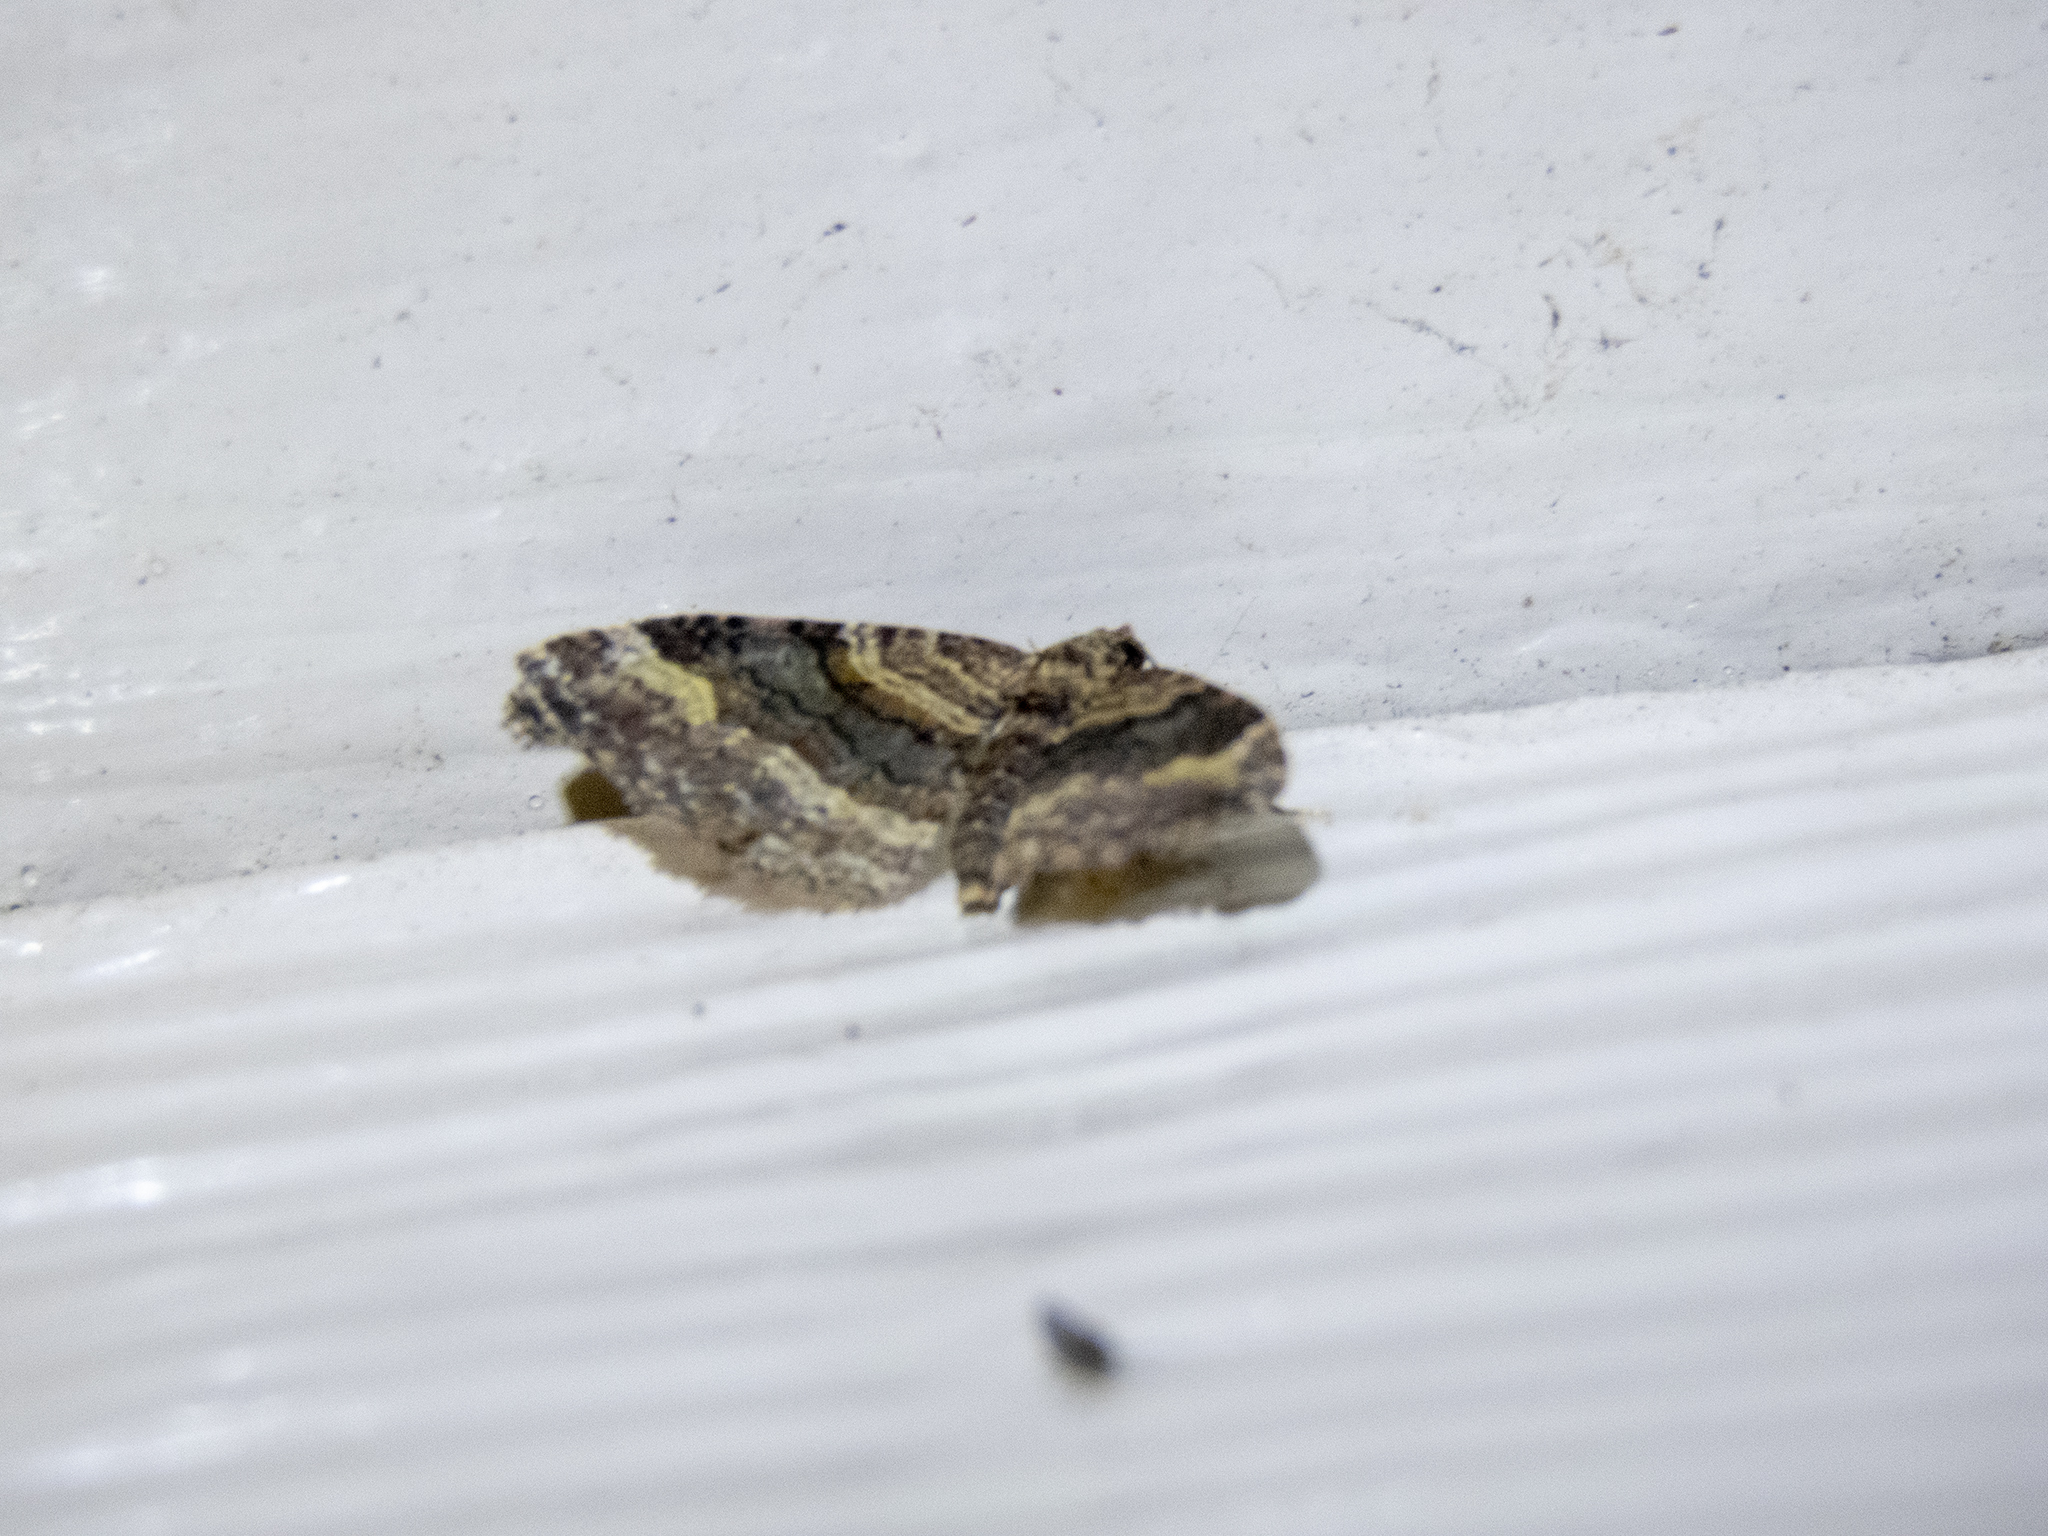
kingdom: Animalia
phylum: Arthropoda
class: Insecta
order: Lepidoptera
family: Geometridae
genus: Epyaxa
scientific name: Epyaxa lucidata
